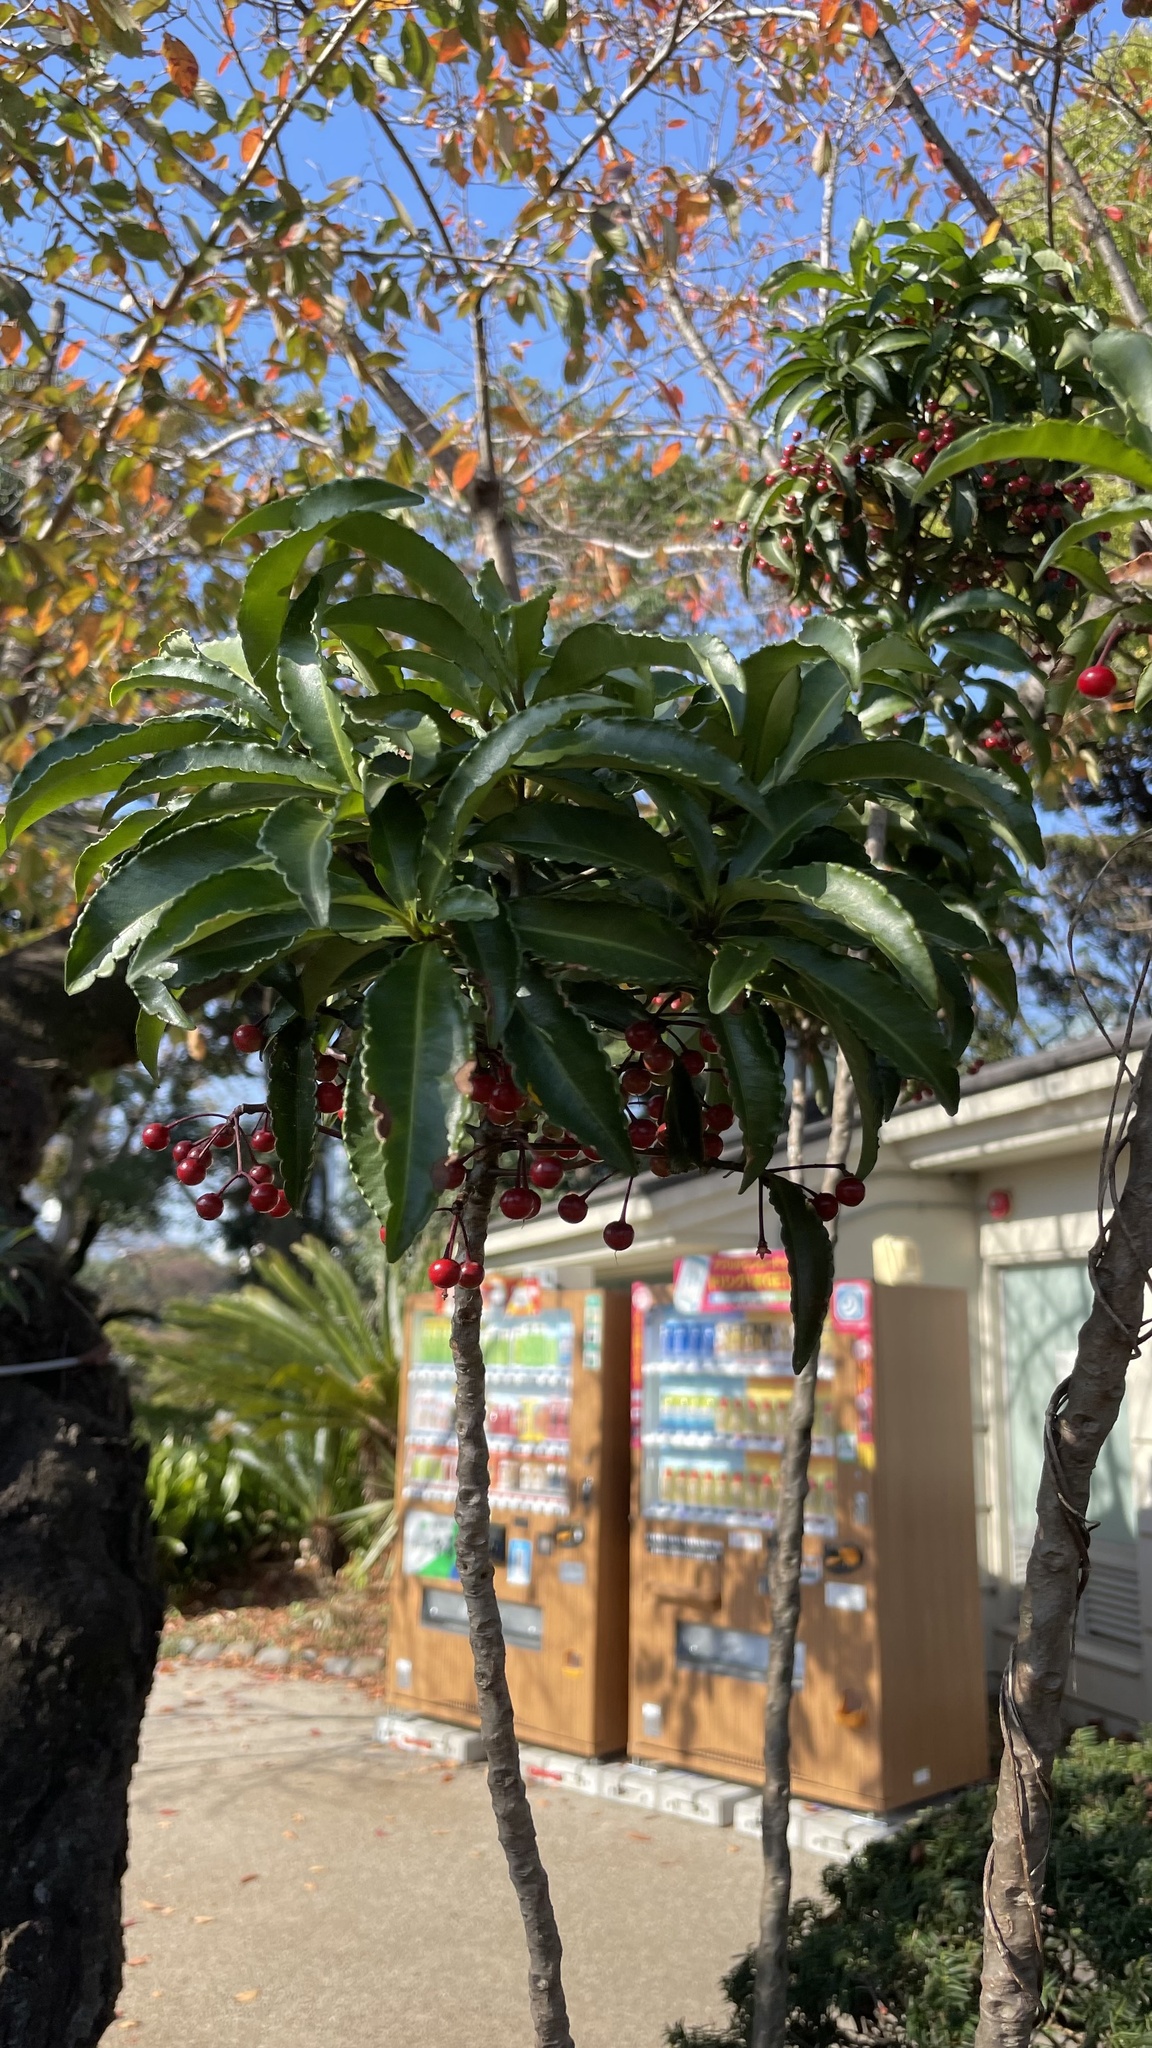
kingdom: Plantae
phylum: Tracheophyta
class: Magnoliopsida
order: Ericales
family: Primulaceae
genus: Ardisia
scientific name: Ardisia crenata
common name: Hen's eyes
